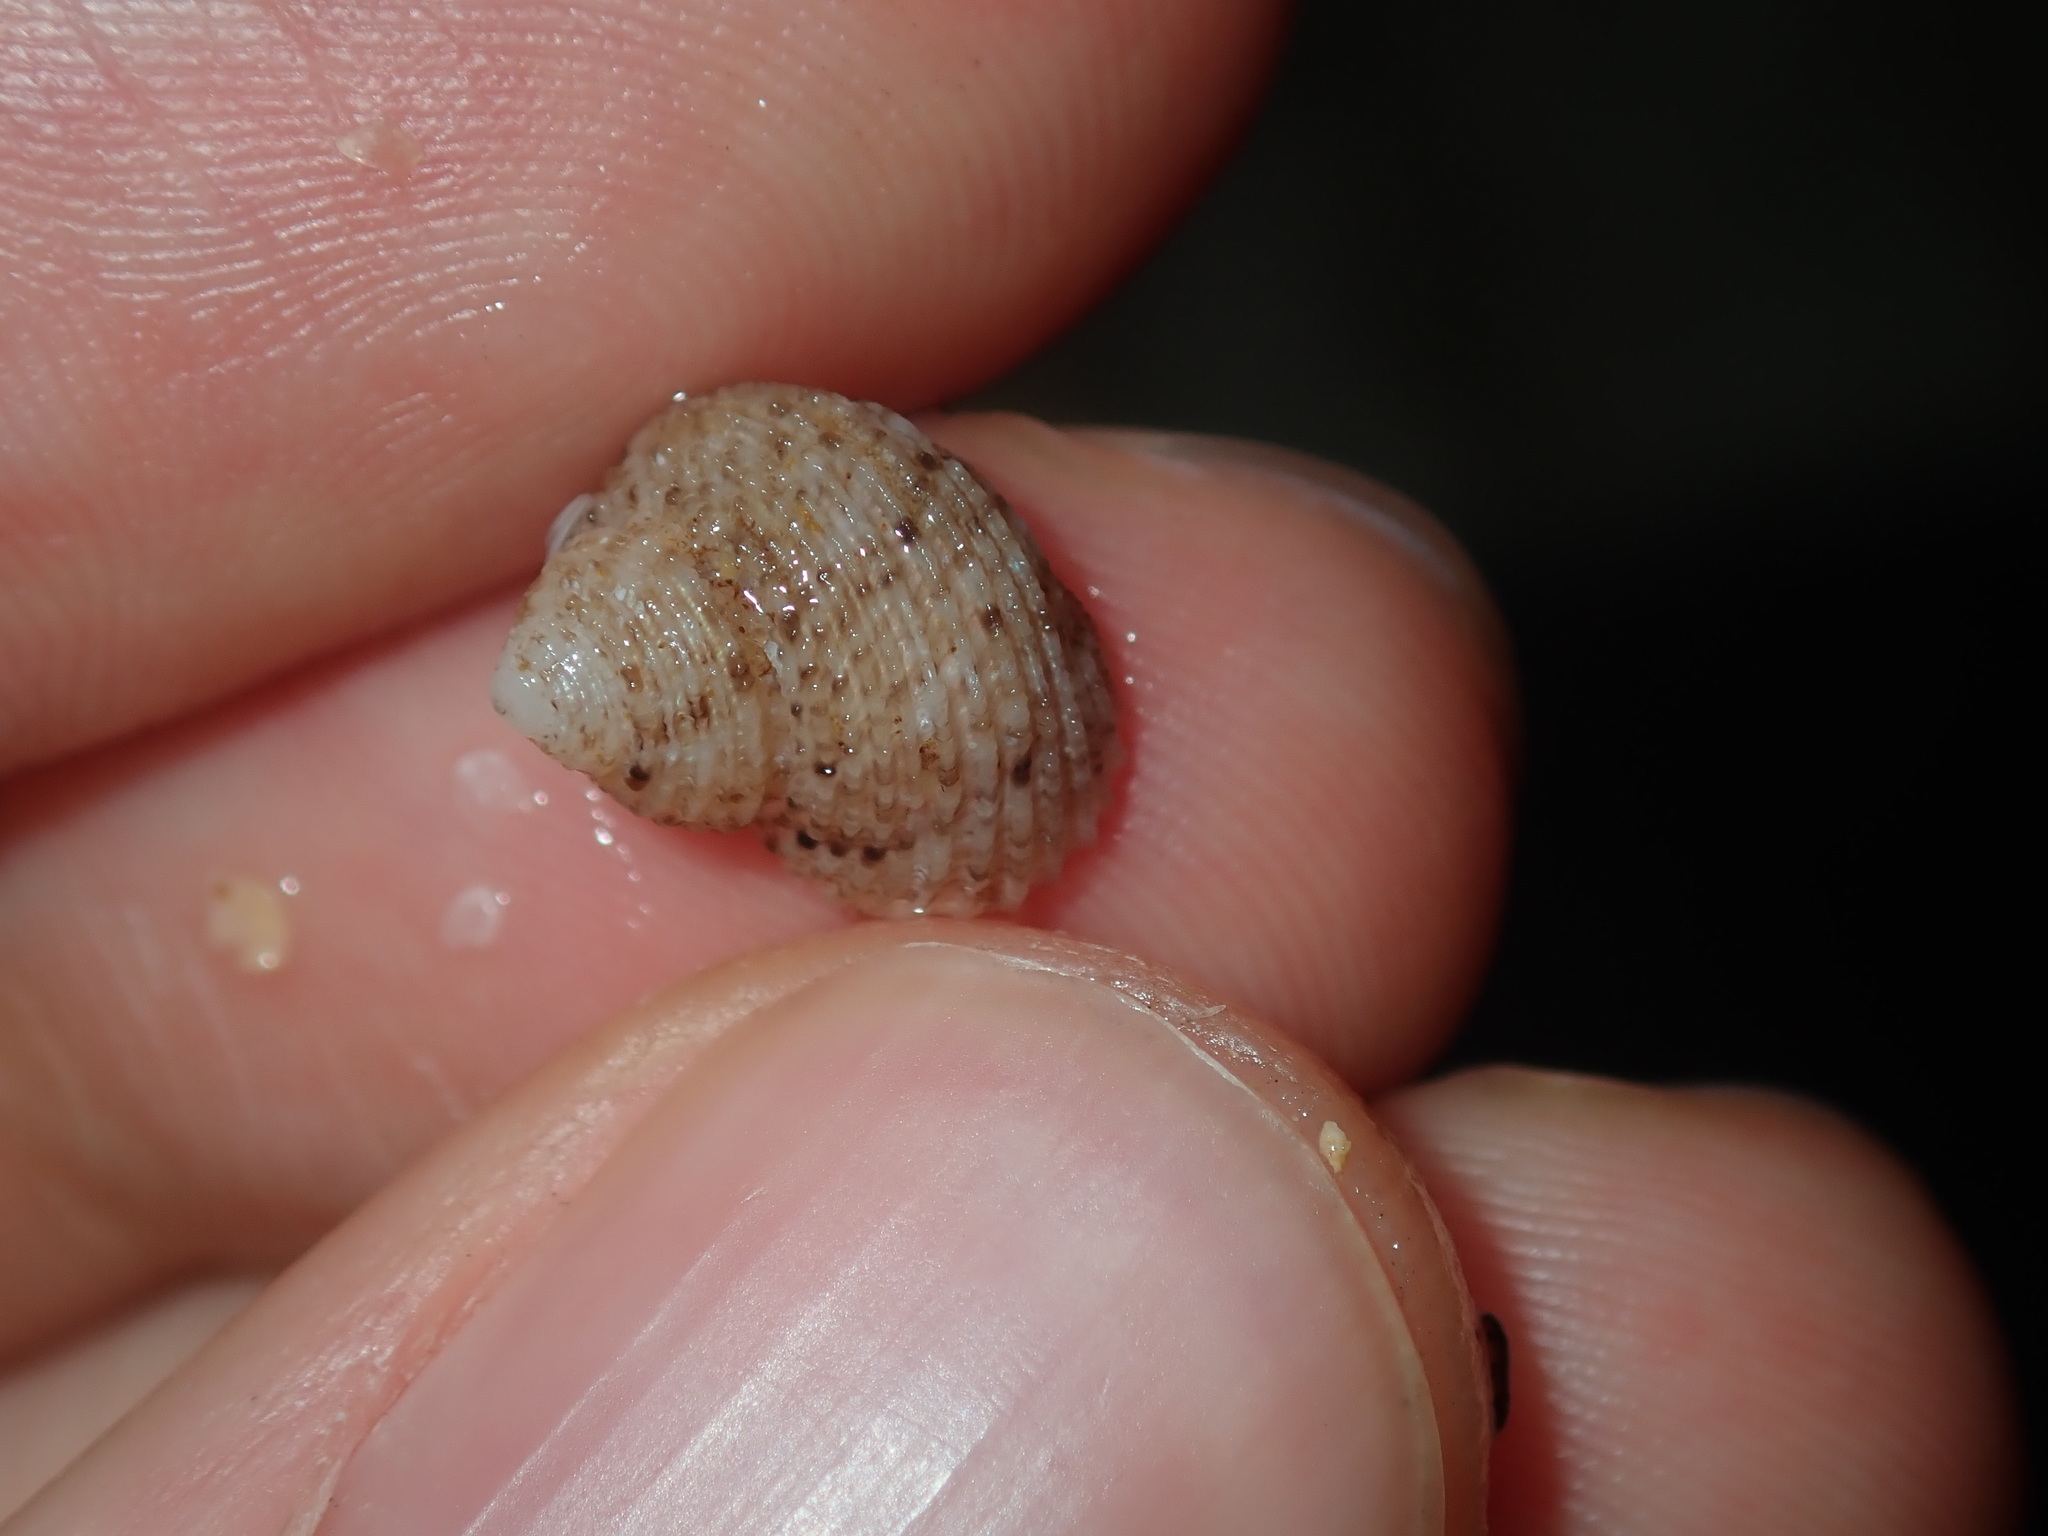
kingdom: Animalia
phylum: Mollusca
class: Gastropoda
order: Seguenziida
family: Chilodontaidae
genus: Herpetopoma
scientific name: Herpetopoma aspersum
